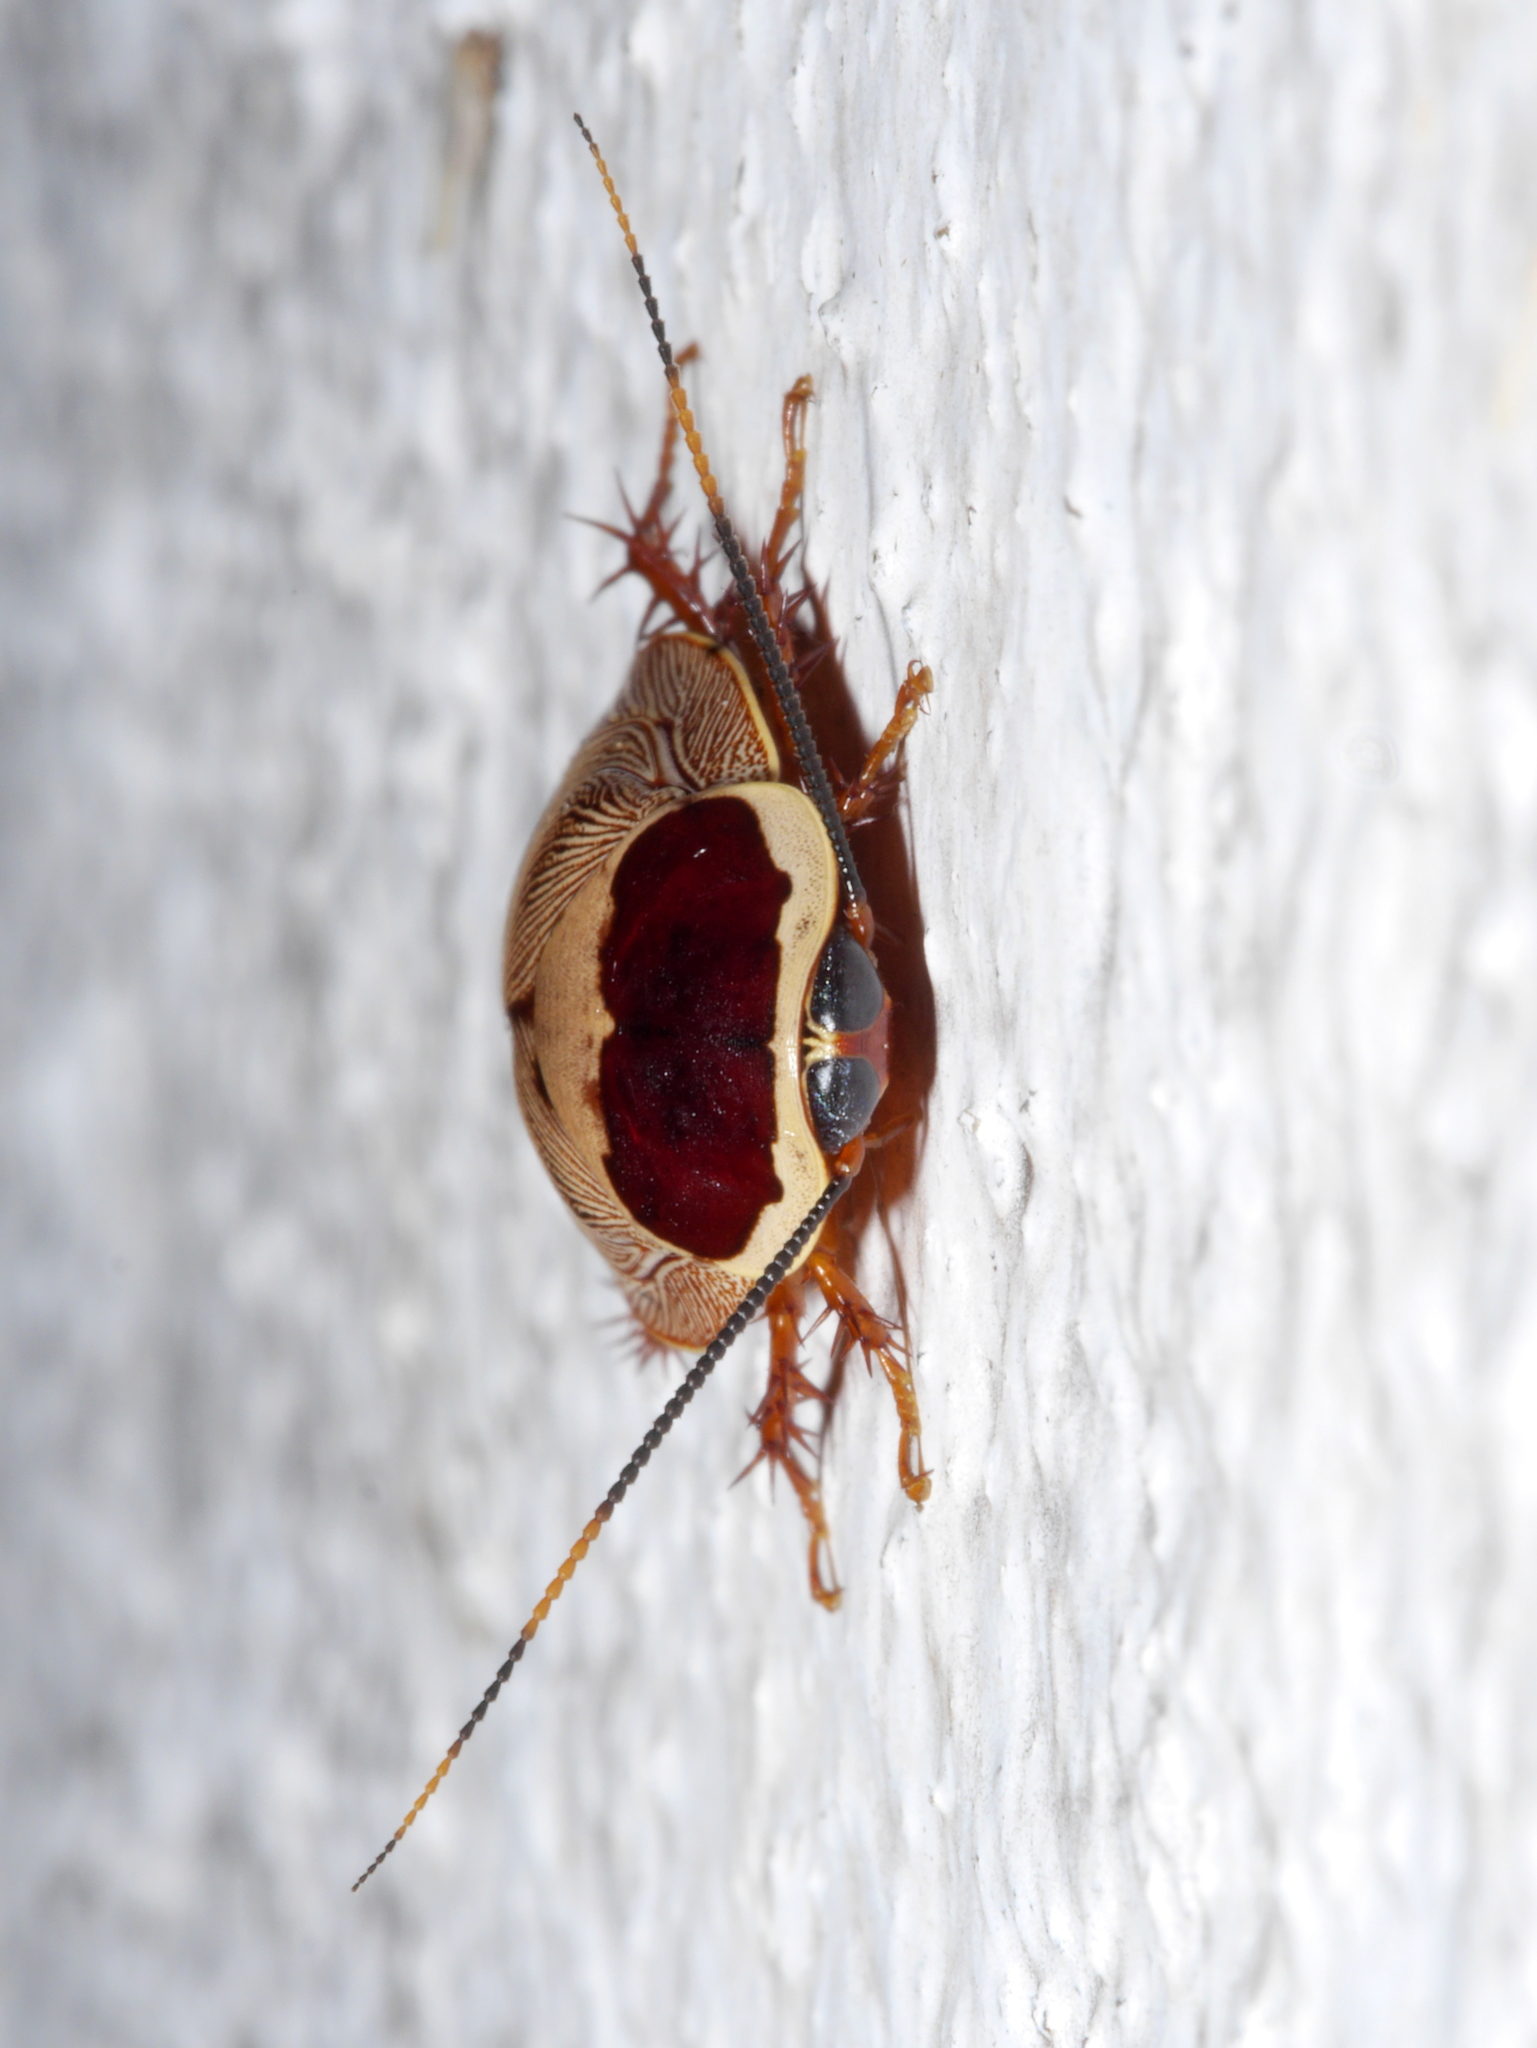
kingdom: Animalia
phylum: Arthropoda
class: Insecta
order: Blattodea
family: Blaberidae
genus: Gyna
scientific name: Gyna bisannulata
